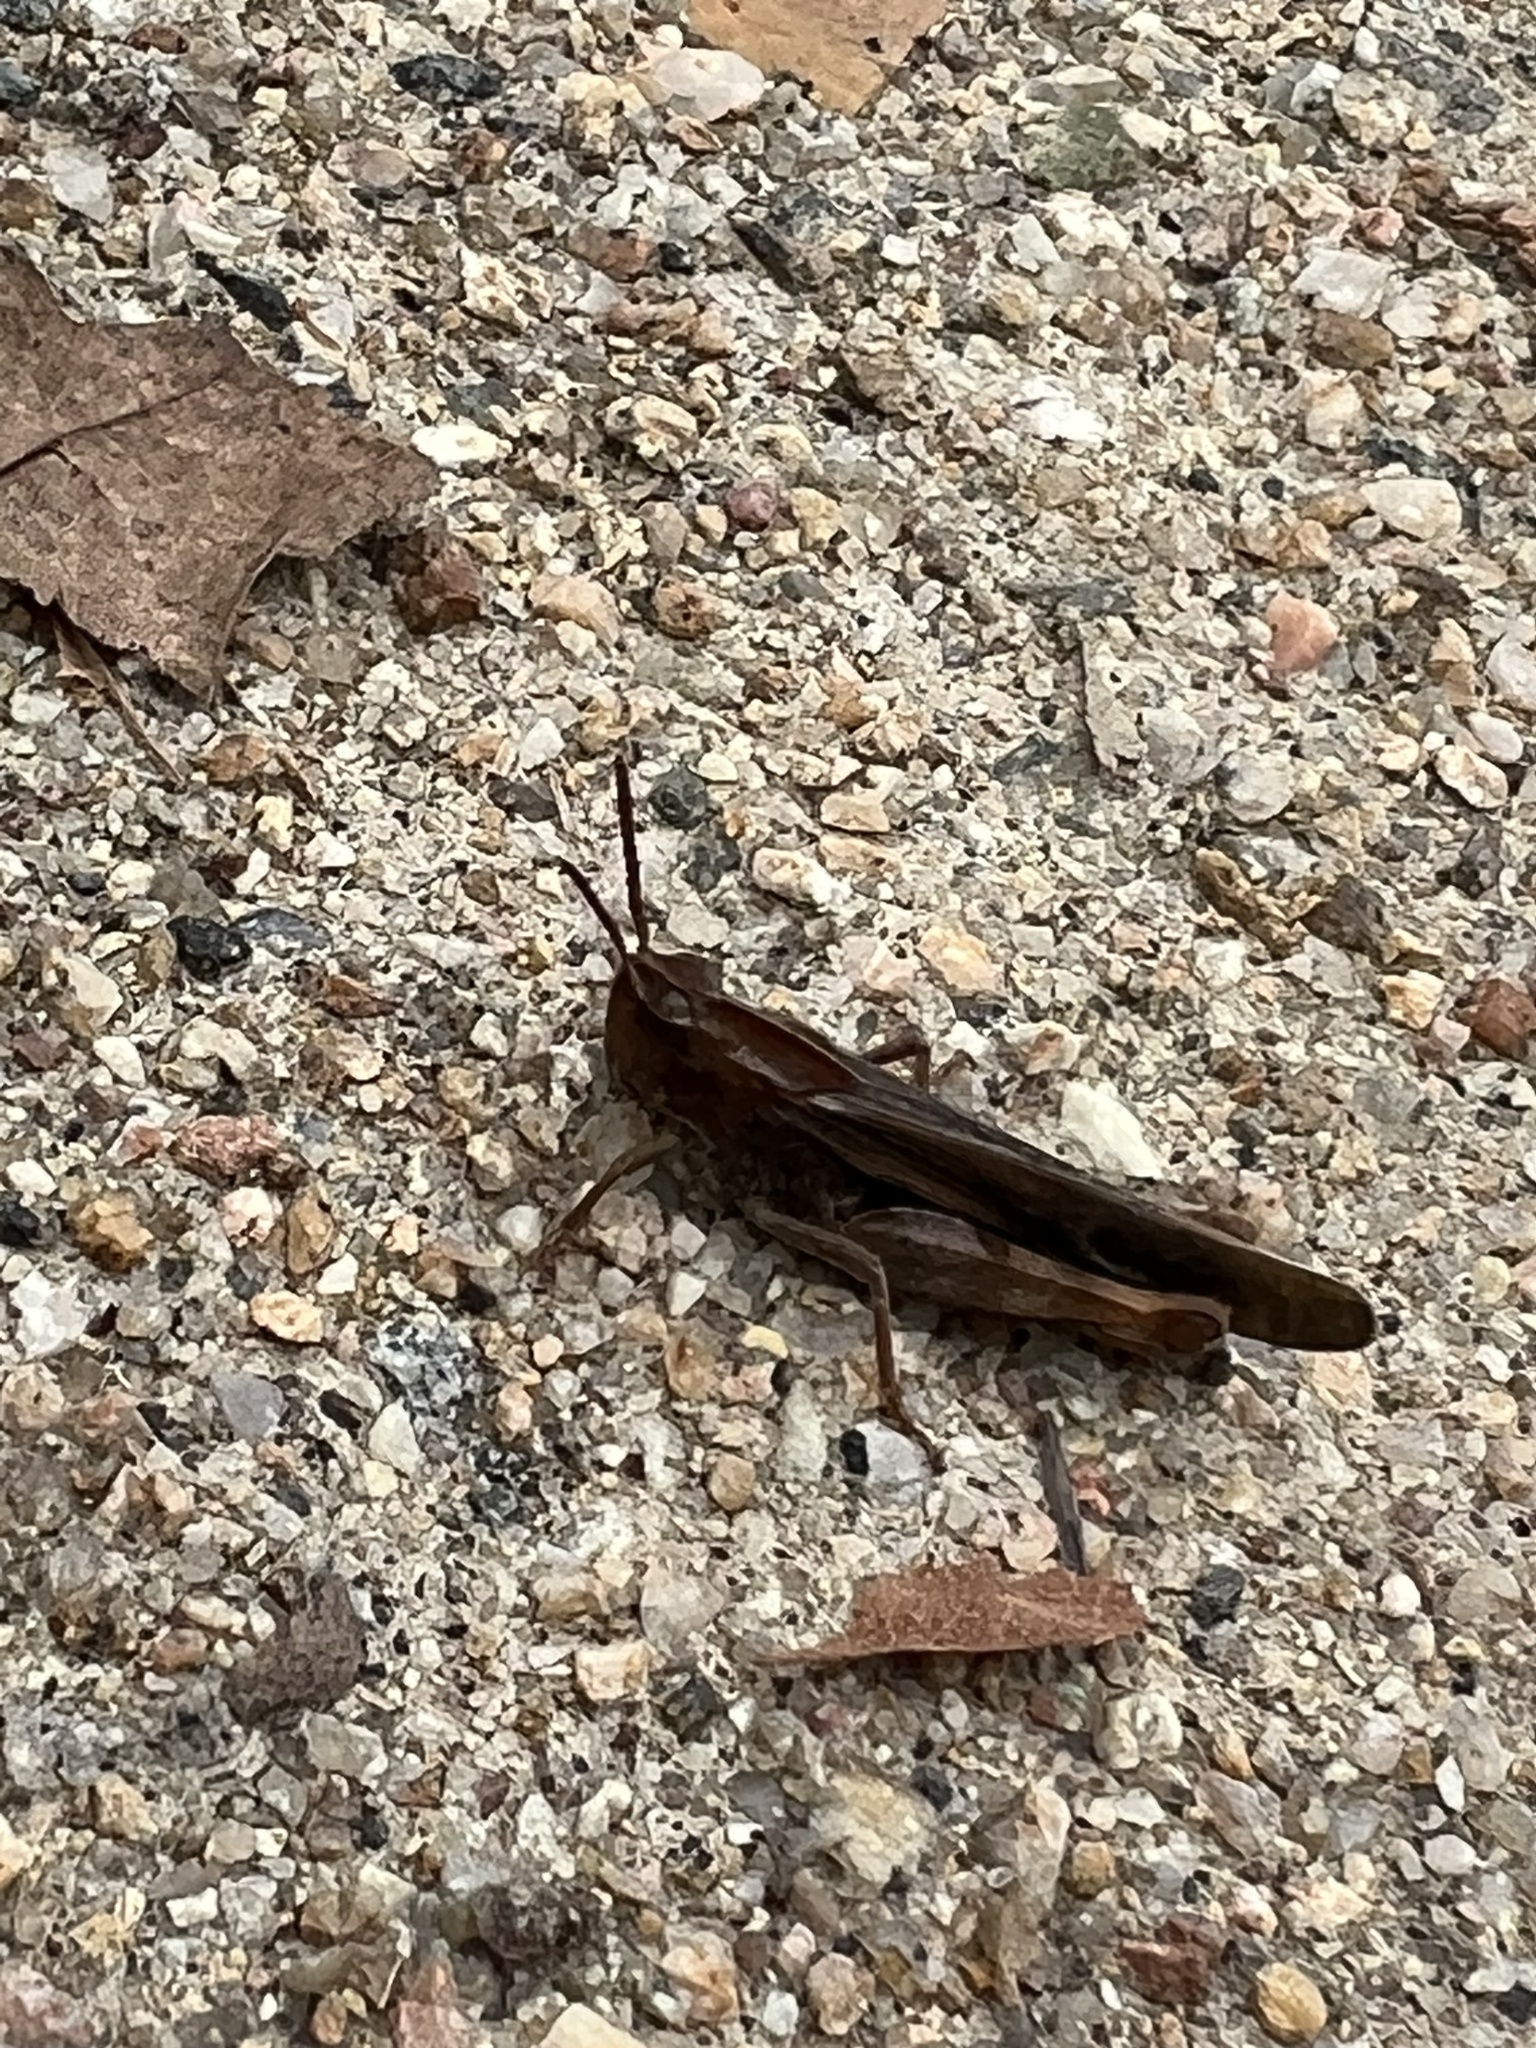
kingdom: Animalia
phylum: Arthropoda
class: Insecta
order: Orthoptera
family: Acrididae
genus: Chortophaga
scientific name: Chortophaga viridifasciata
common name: Green-striped grasshopper
